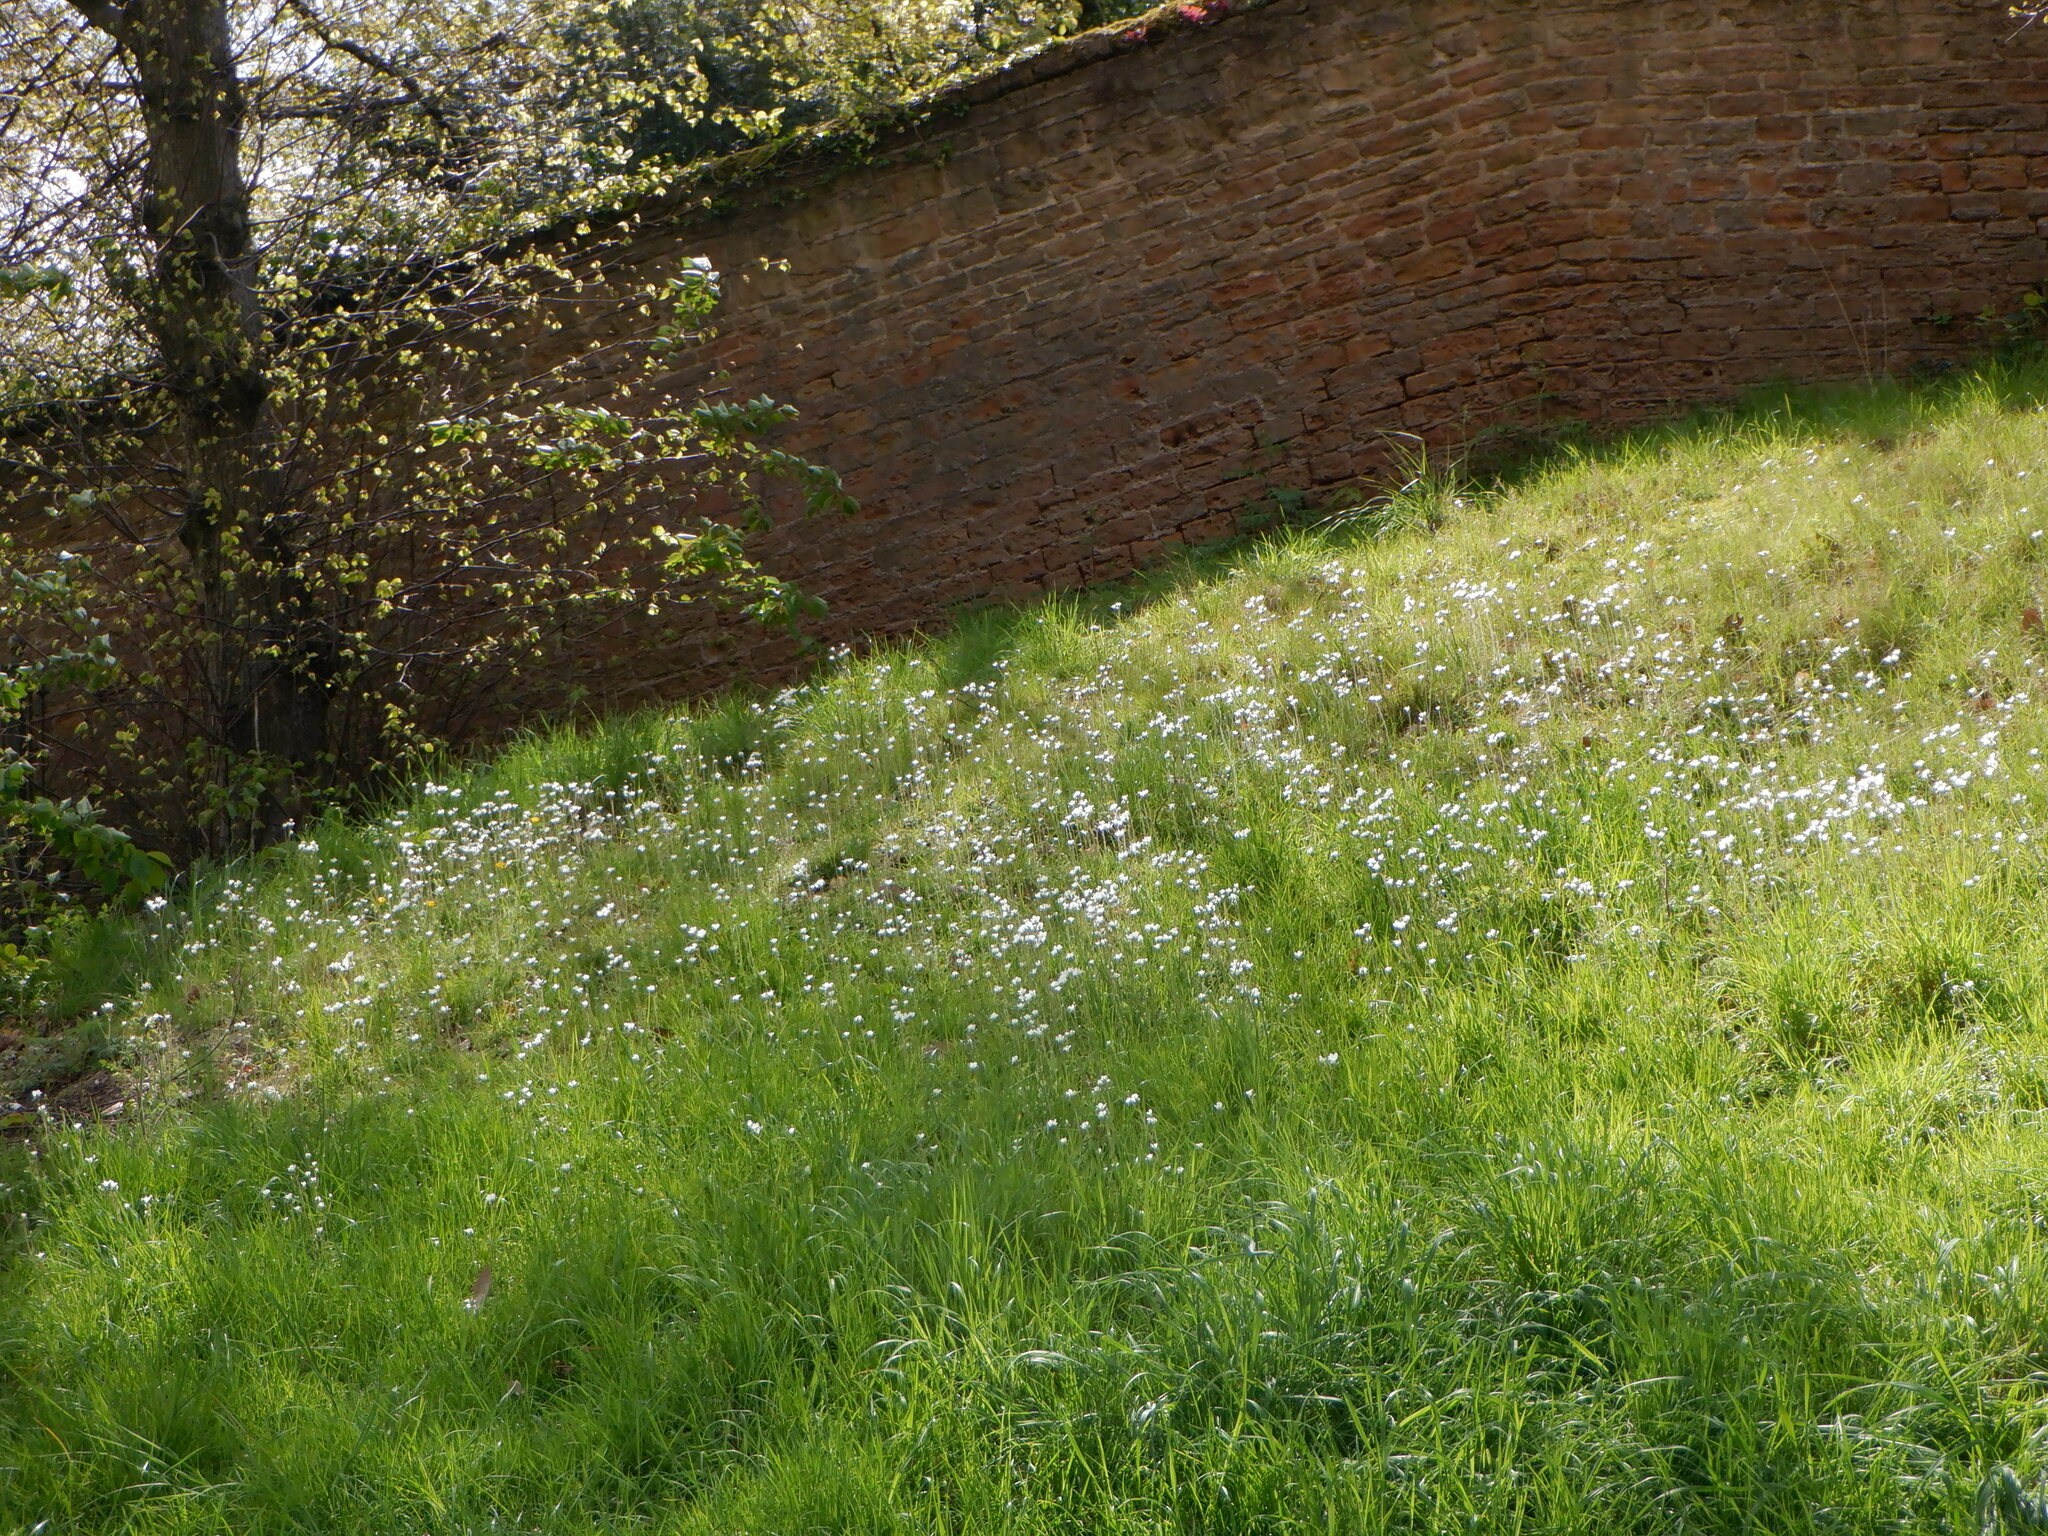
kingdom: Plantae
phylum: Tracheophyta
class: Magnoliopsida
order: Saxifragales
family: Saxifragaceae
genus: Saxifraga
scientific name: Saxifraga granulata
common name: Meadow saxifrage
